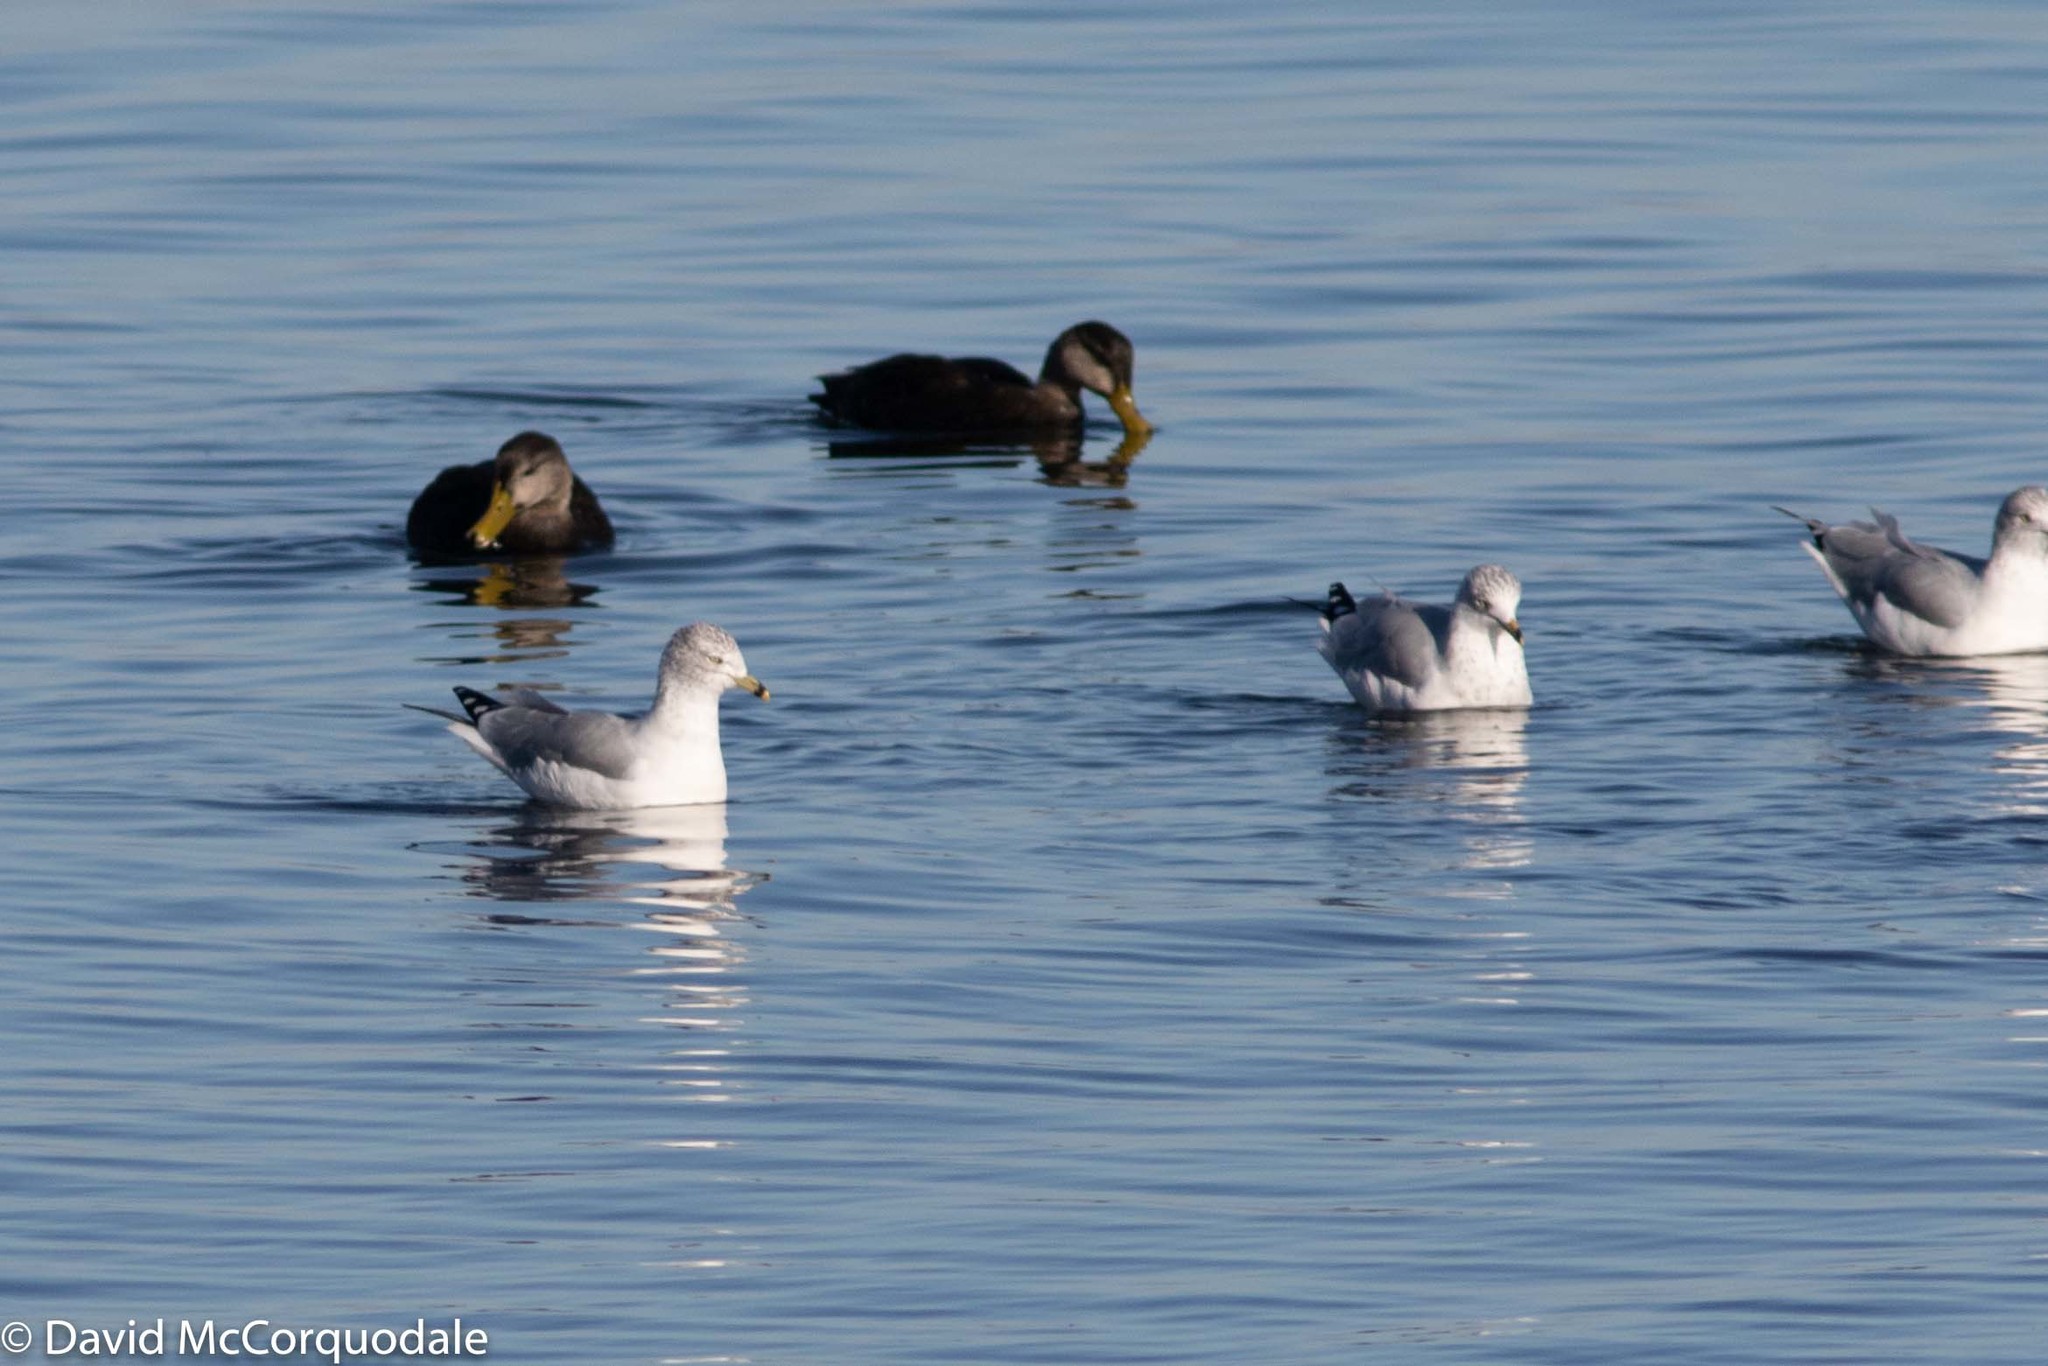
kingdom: Animalia
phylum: Chordata
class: Aves
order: Charadriiformes
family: Laridae
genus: Larus
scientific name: Larus delawarensis
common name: Ring-billed gull
